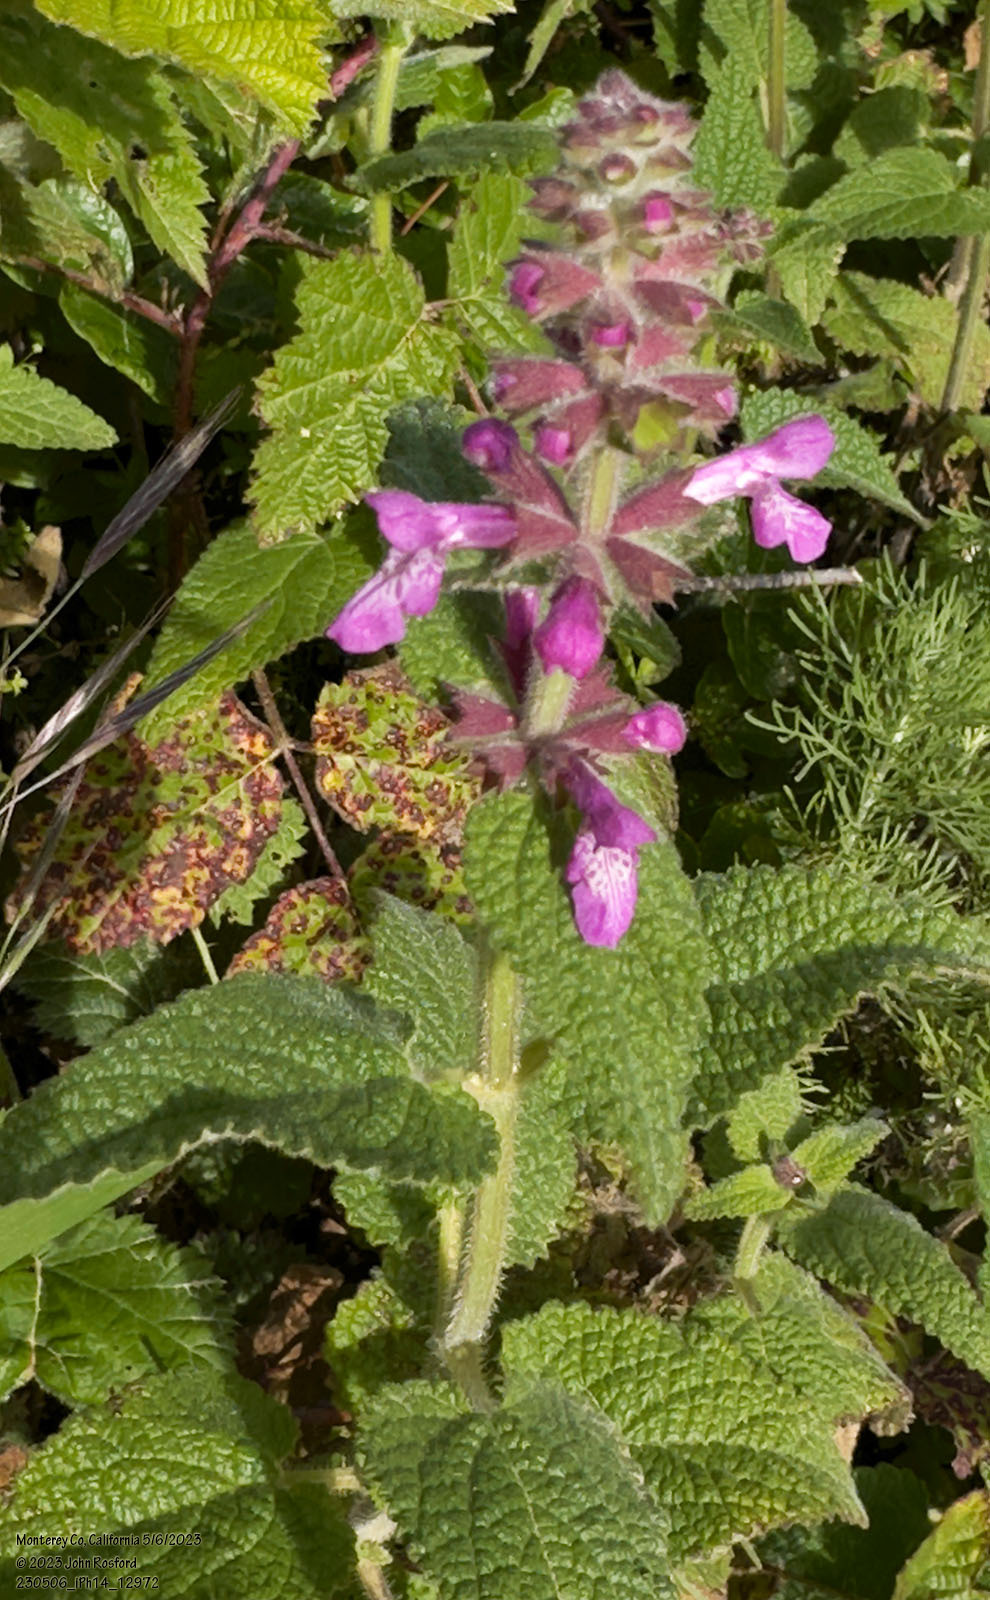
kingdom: Plantae
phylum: Tracheophyta
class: Magnoliopsida
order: Lamiales
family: Lamiaceae
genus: Stachys
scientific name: Stachys bullata
